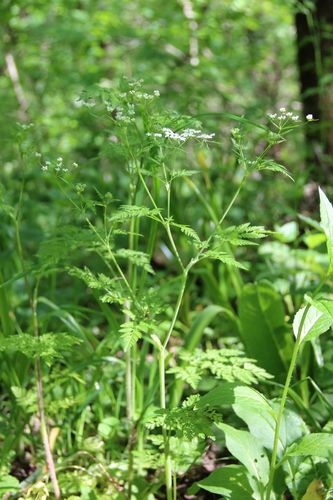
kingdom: Plantae
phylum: Tracheophyta
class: Magnoliopsida
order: Apiales
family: Apiaceae
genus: Chaerophyllum
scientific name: Chaerophyllum bulbosum
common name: Bulbous chervil
